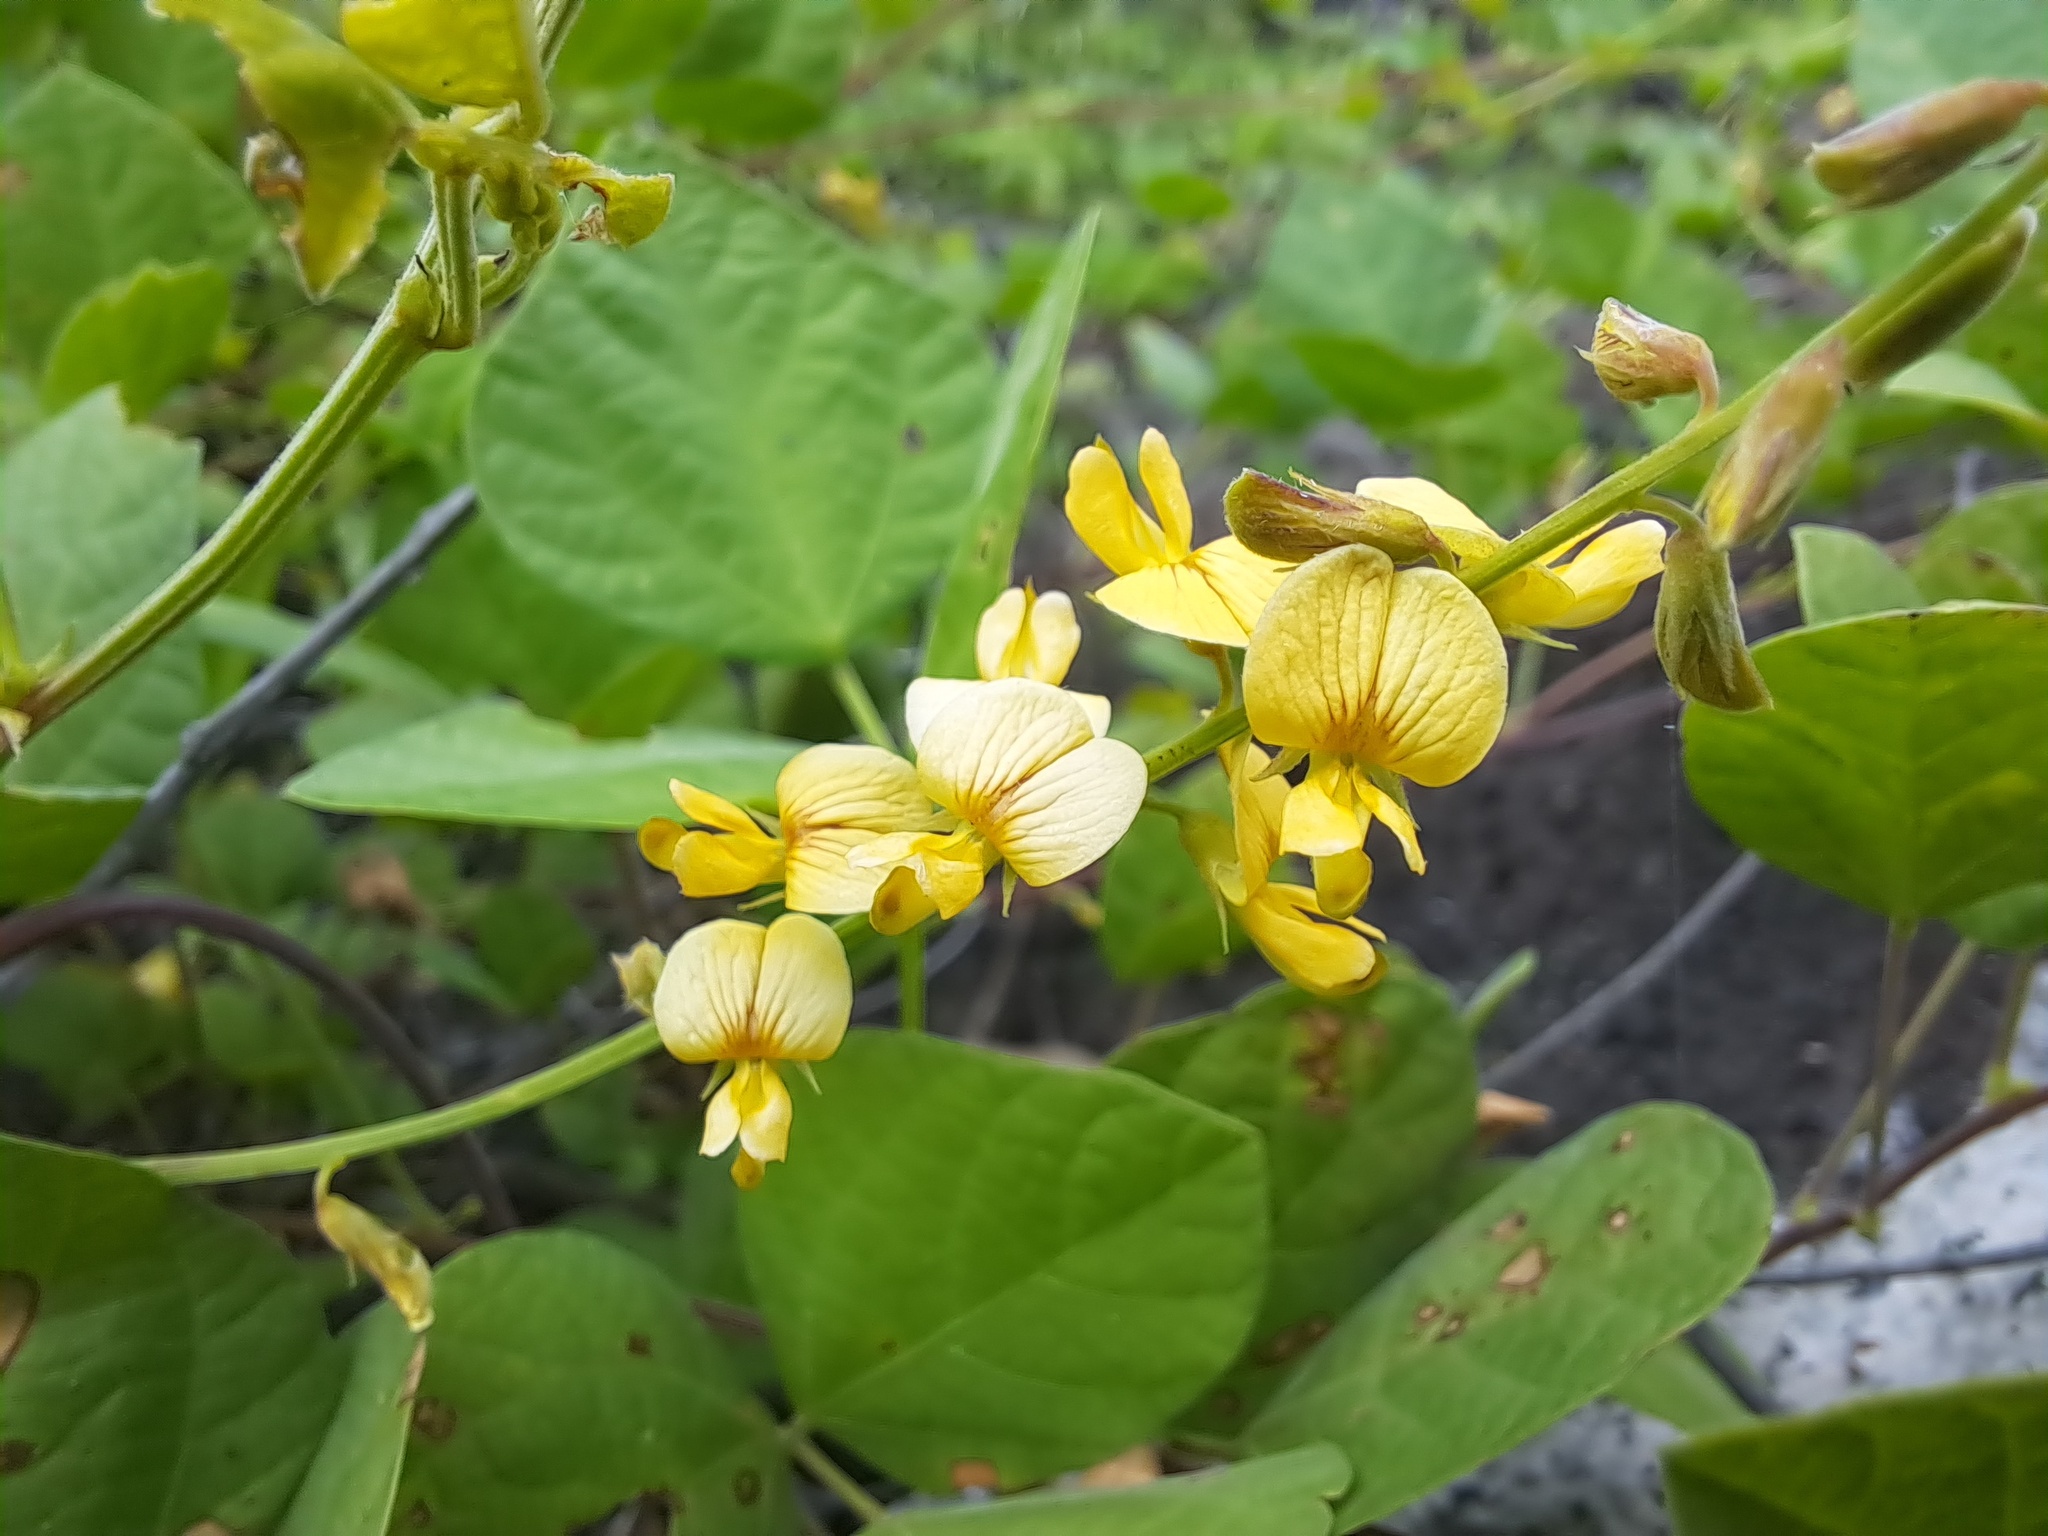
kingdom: Plantae
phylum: Tracheophyta
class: Magnoliopsida
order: Fabales
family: Fabaceae
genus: Rhynchosia
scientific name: Rhynchosia minima
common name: Least snoutbean
